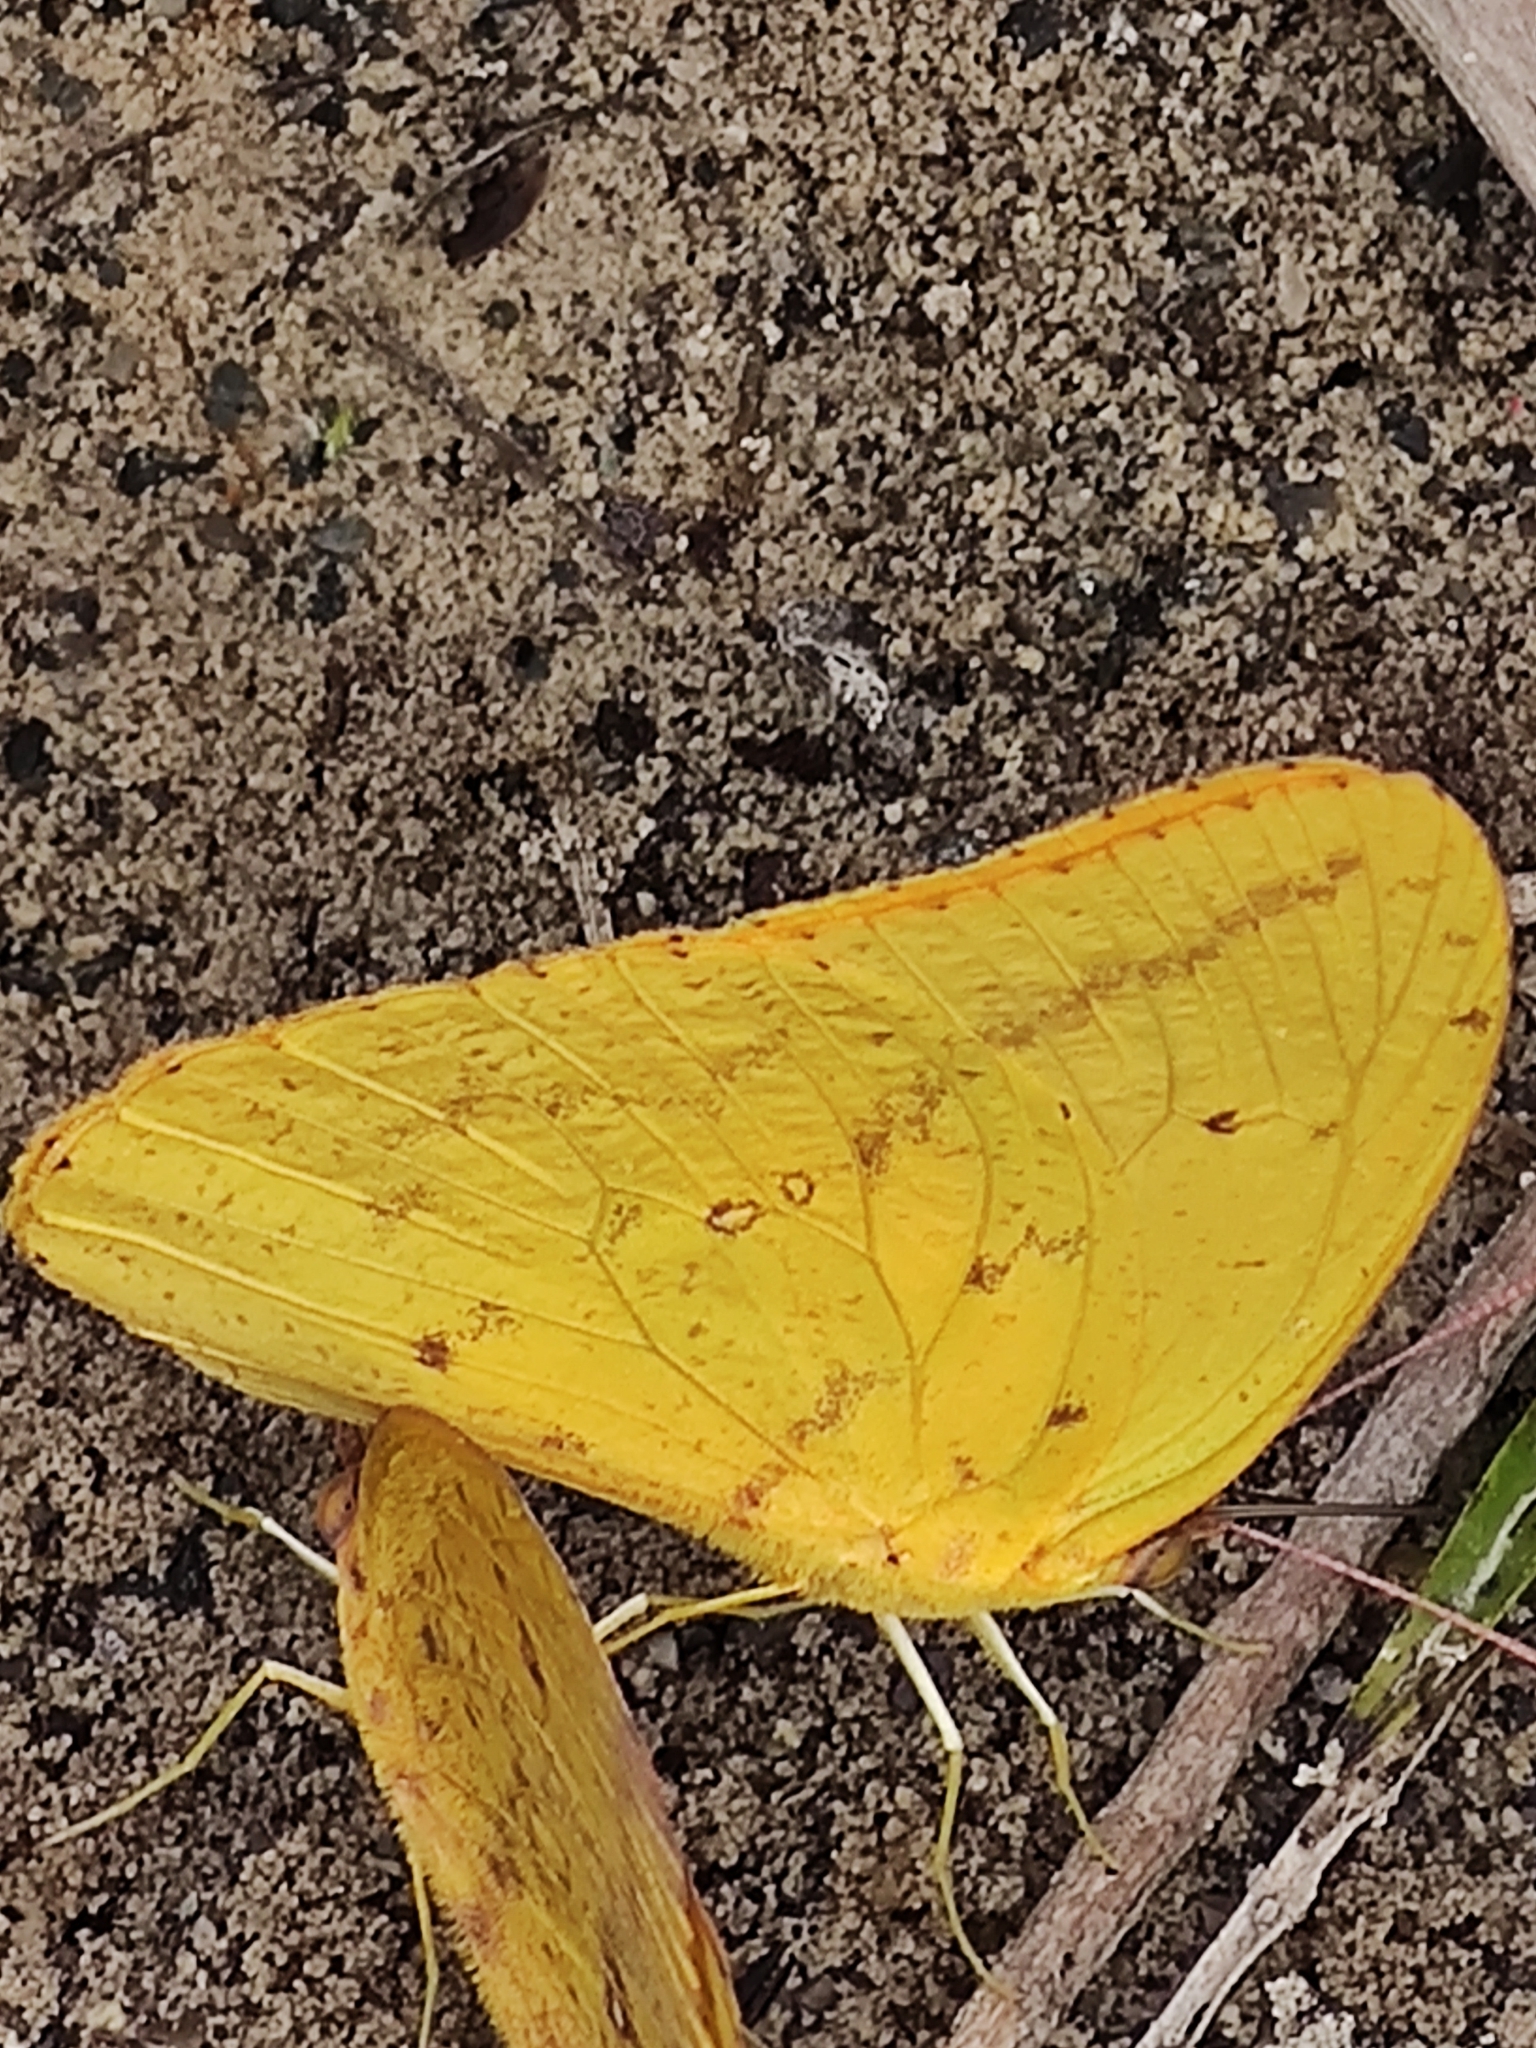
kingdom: Animalia
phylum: Arthropoda
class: Insecta
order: Lepidoptera
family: Pieridae
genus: Phoebis
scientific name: Phoebis agarithe
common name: Large orange sulphur
